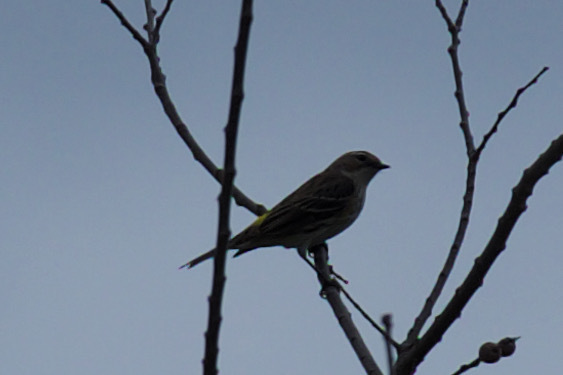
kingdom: Animalia
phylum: Chordata
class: Aves
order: Passeriformes
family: Parulidae
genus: Setophaga
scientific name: Setophaga coronata
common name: Myrtle warbler
